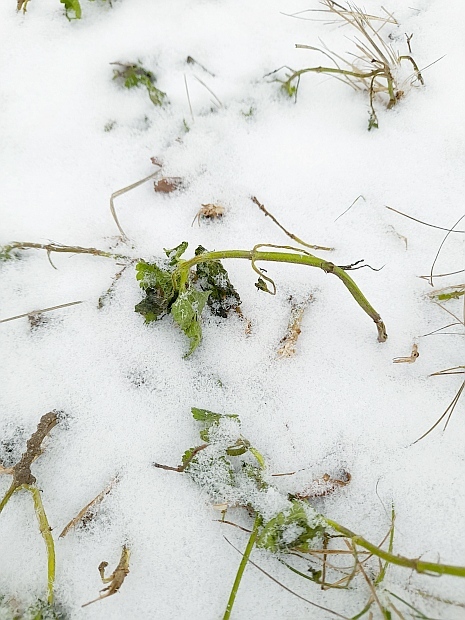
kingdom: Plantae
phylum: Tracheophyta
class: Magnoliopsida
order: Lamiales
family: Lamiaceae
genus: Lamium
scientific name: Lamium album
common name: White dead-nettle
